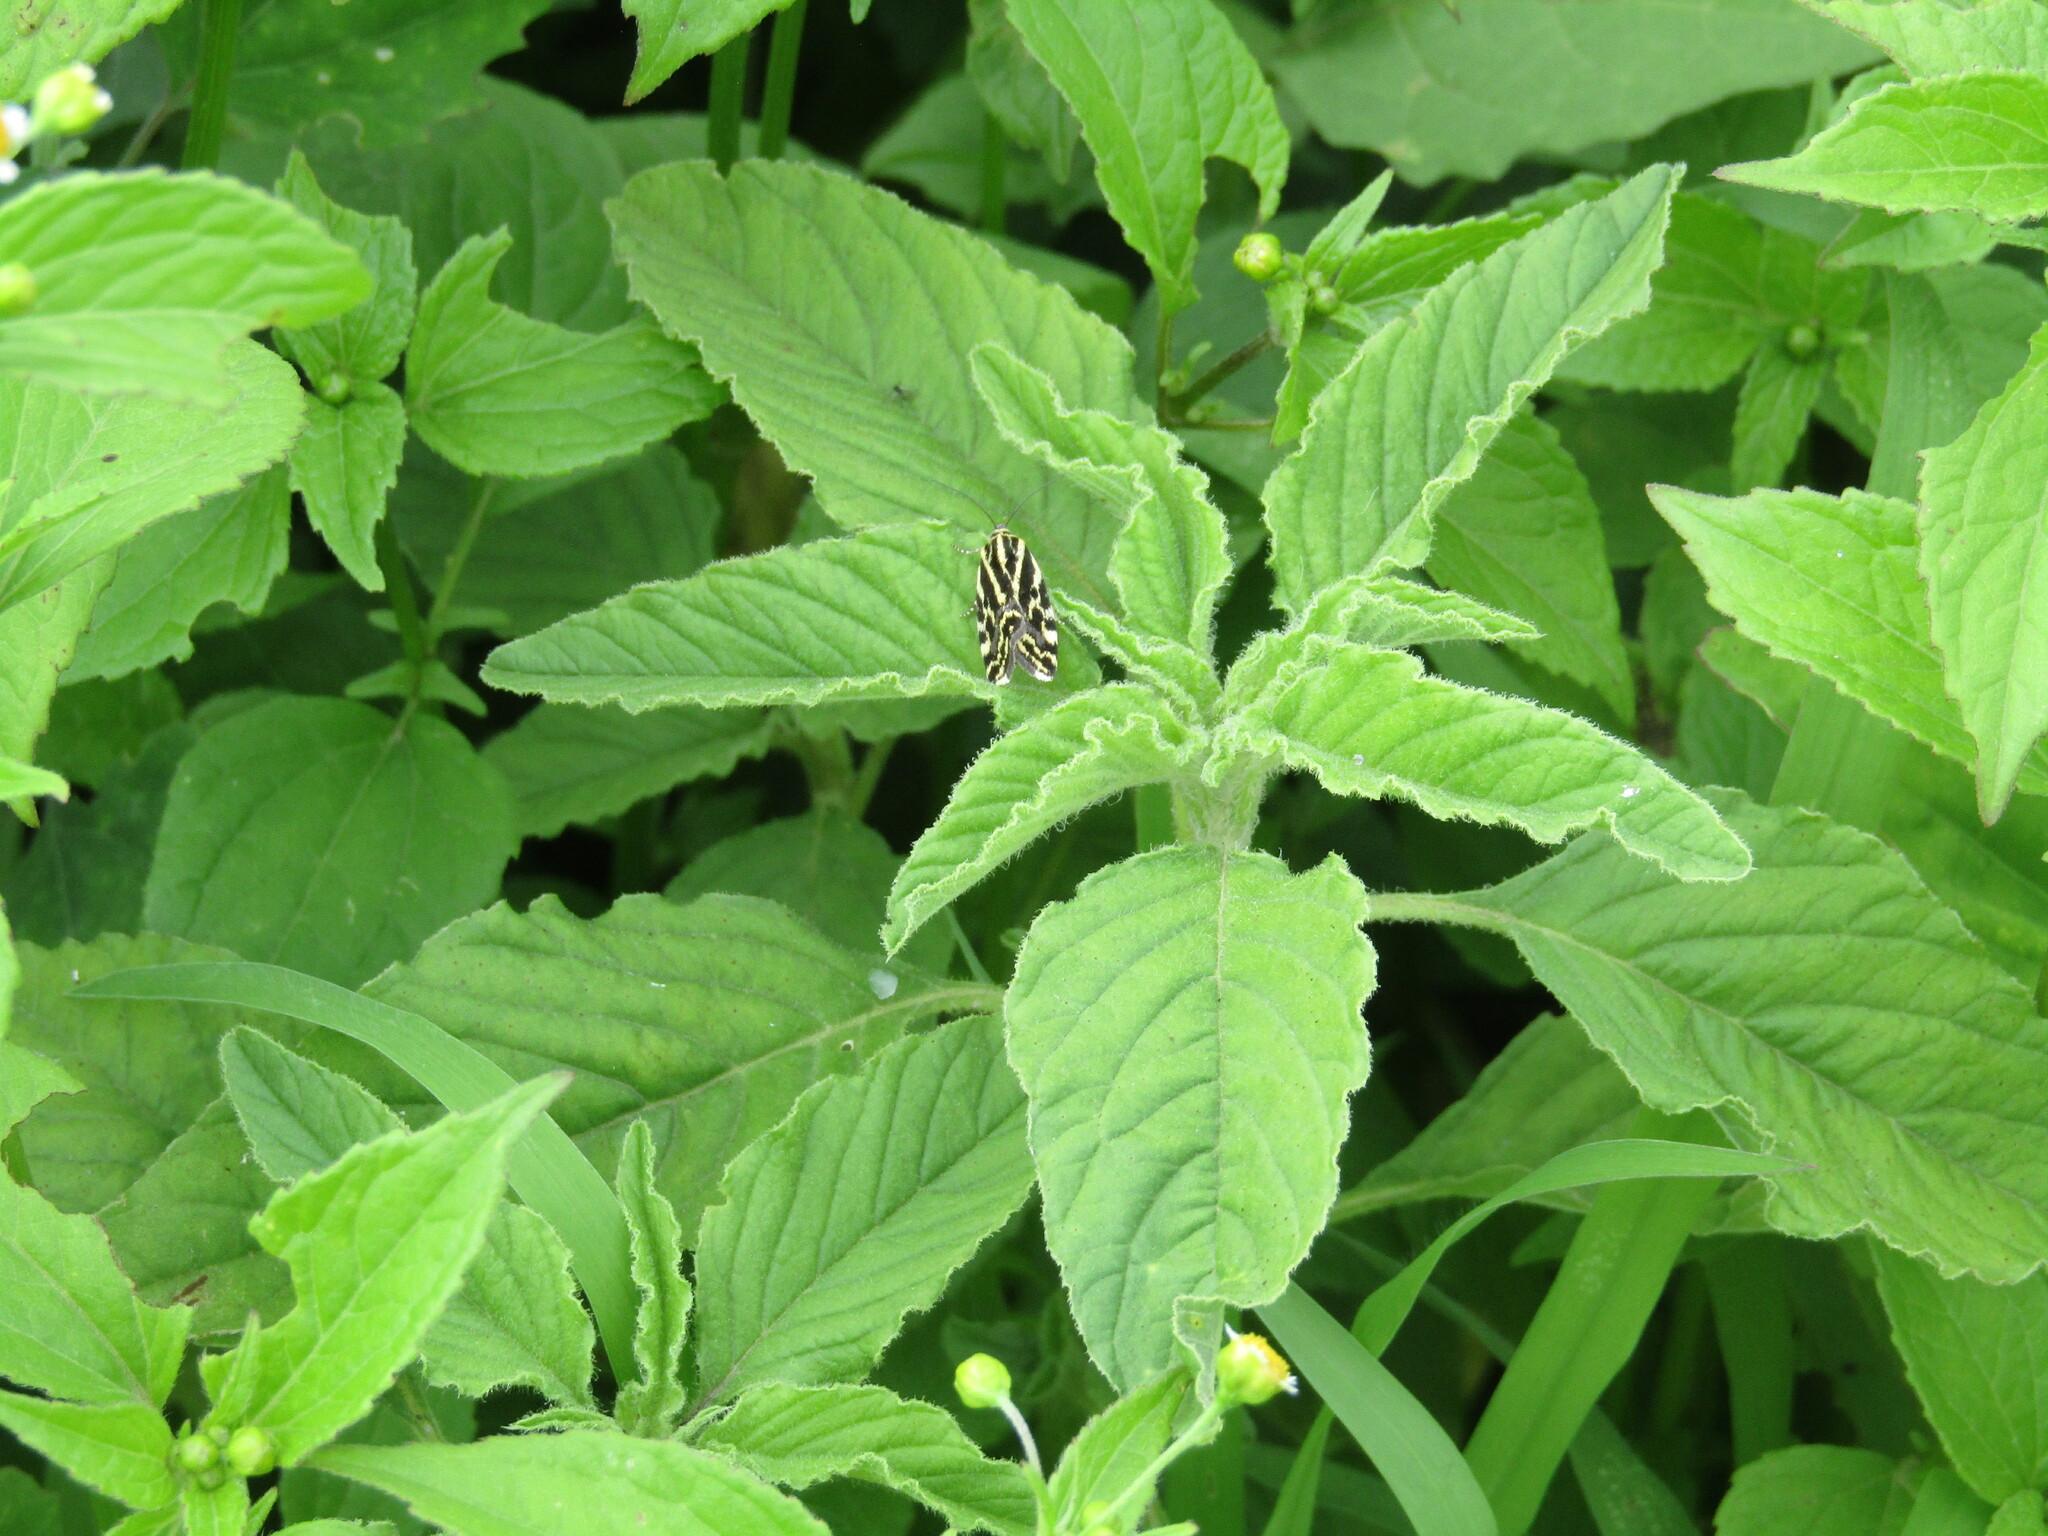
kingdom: Animalia
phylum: Arthropoda
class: Insecta
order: Lepidoptera
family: Noctuidae
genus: Acontia
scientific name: Acontia trabealis
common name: Spotted sulphur
